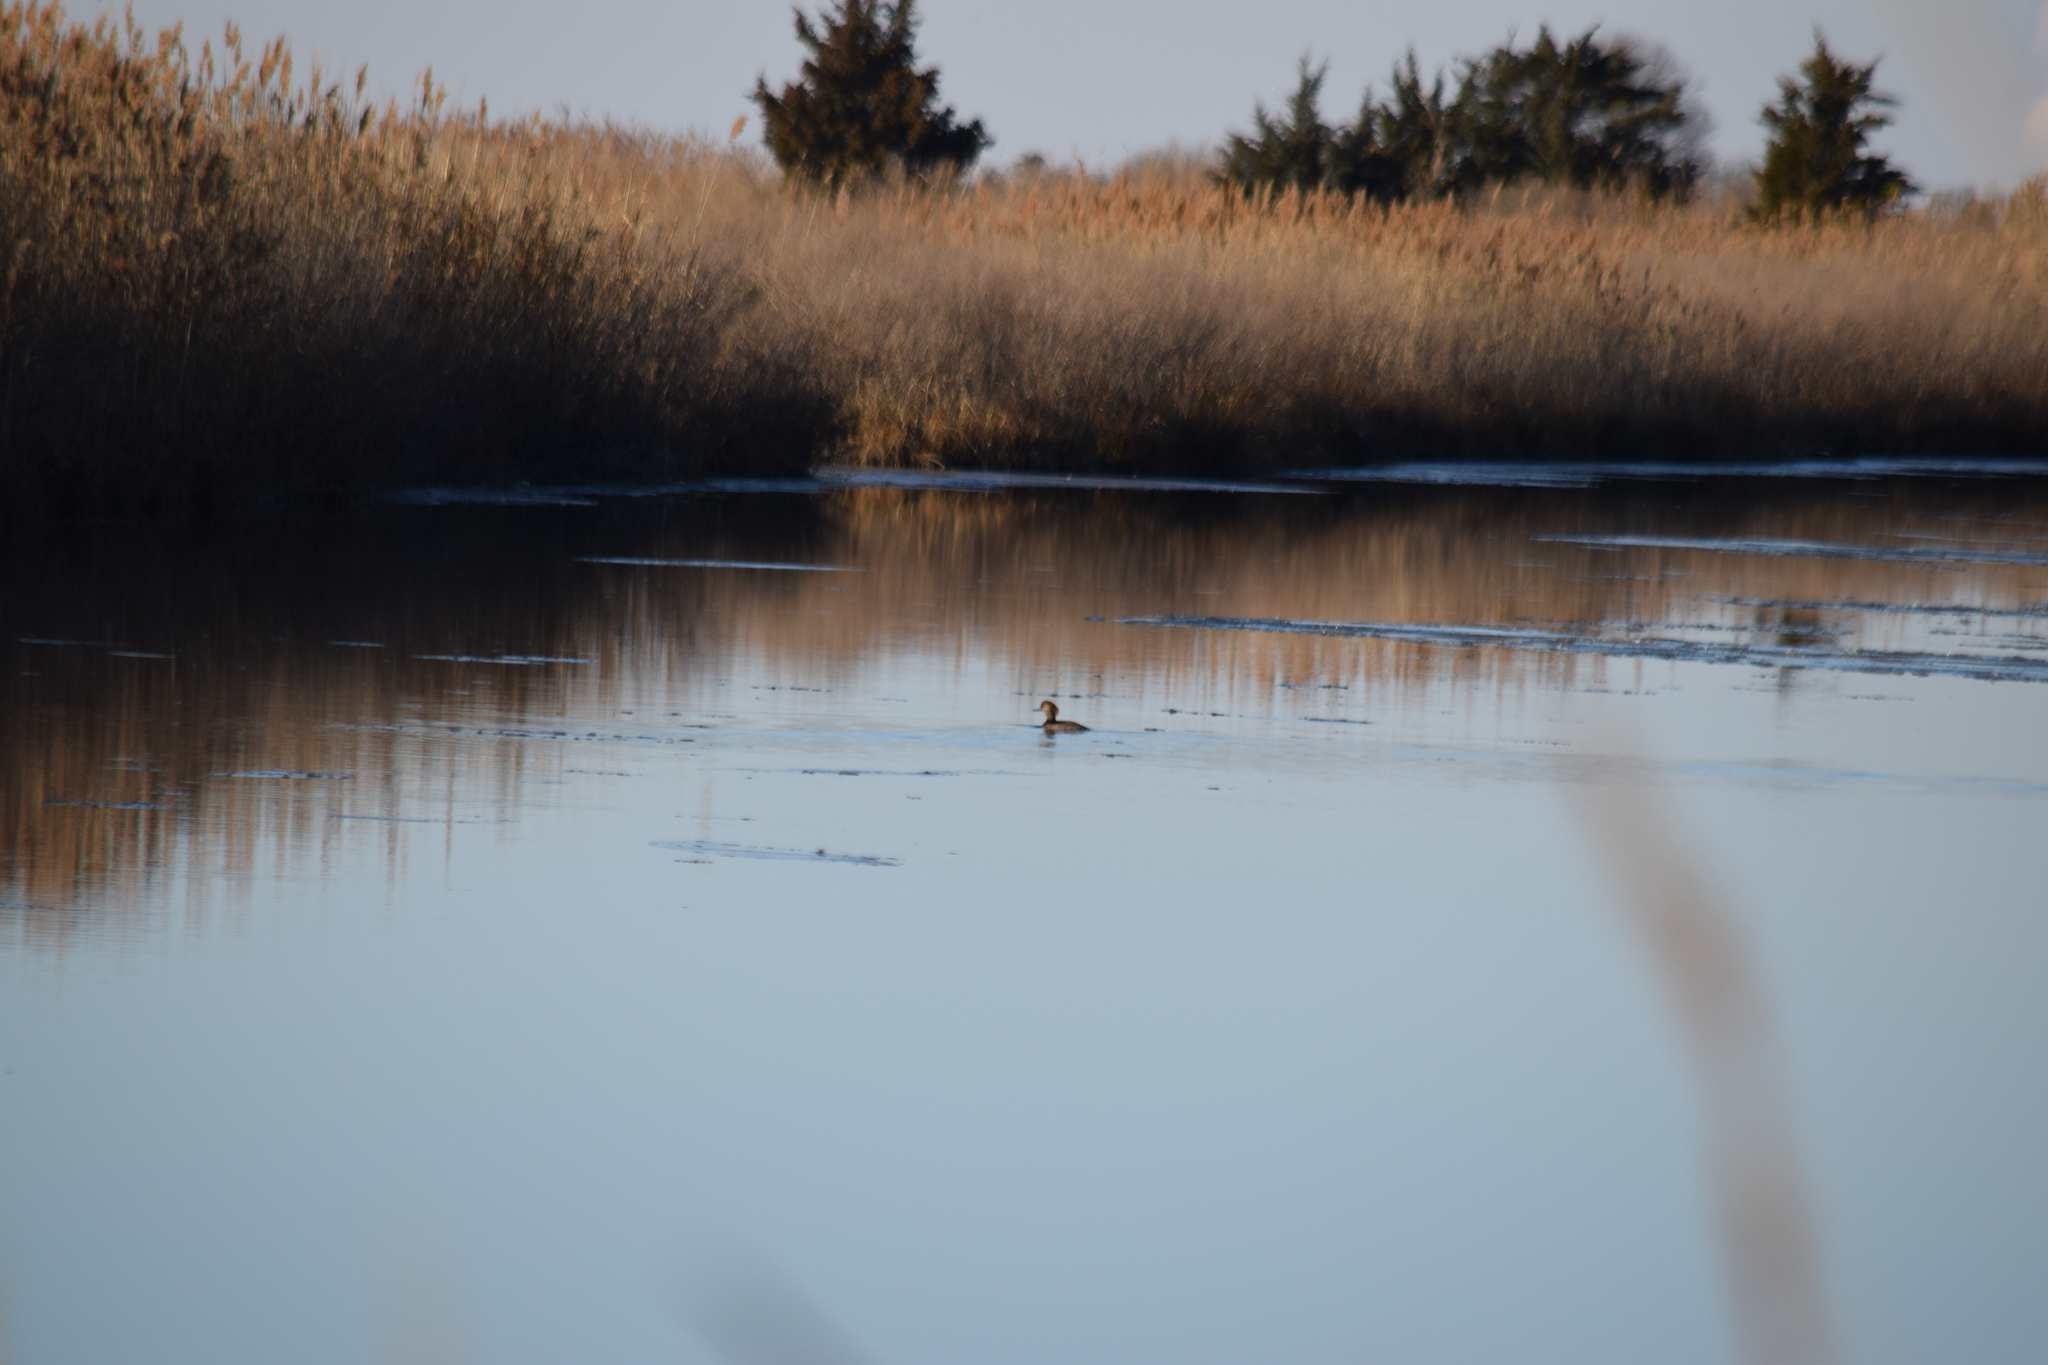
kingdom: Animalia
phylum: Chordata
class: Aves
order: Anseriformes
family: Anatidae
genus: Lophodytes
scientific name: Lophodytes cucullatus
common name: Hooded merganser
